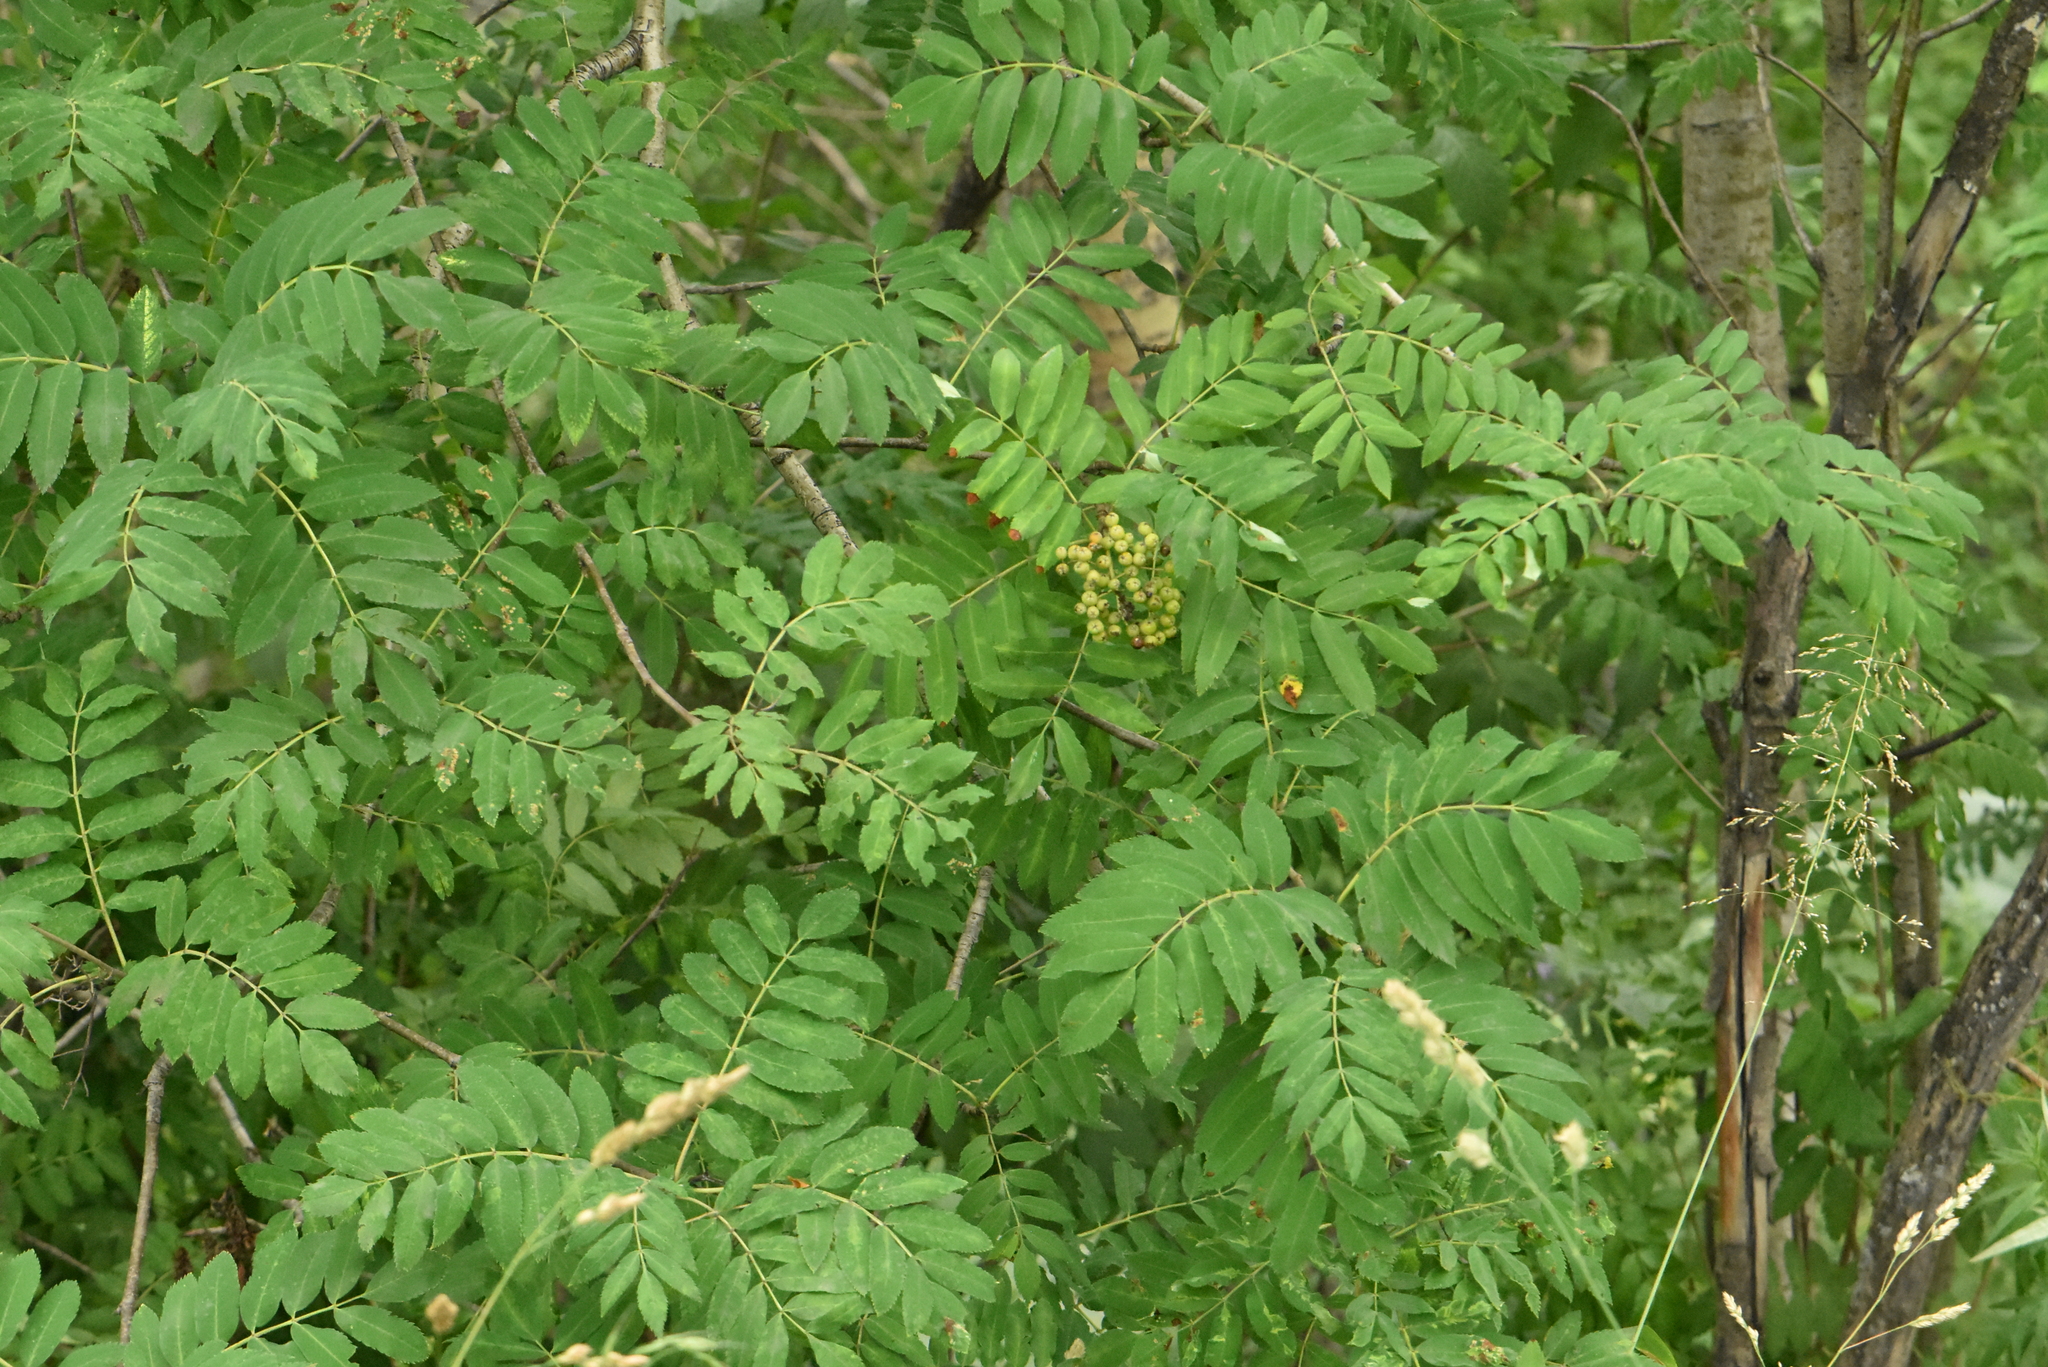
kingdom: Plantae
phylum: Tracheophyta
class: Magnoliopsida
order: Rosales
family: Rosaceae
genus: Sorbus
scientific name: Sorbus aucuparia
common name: Rowan
